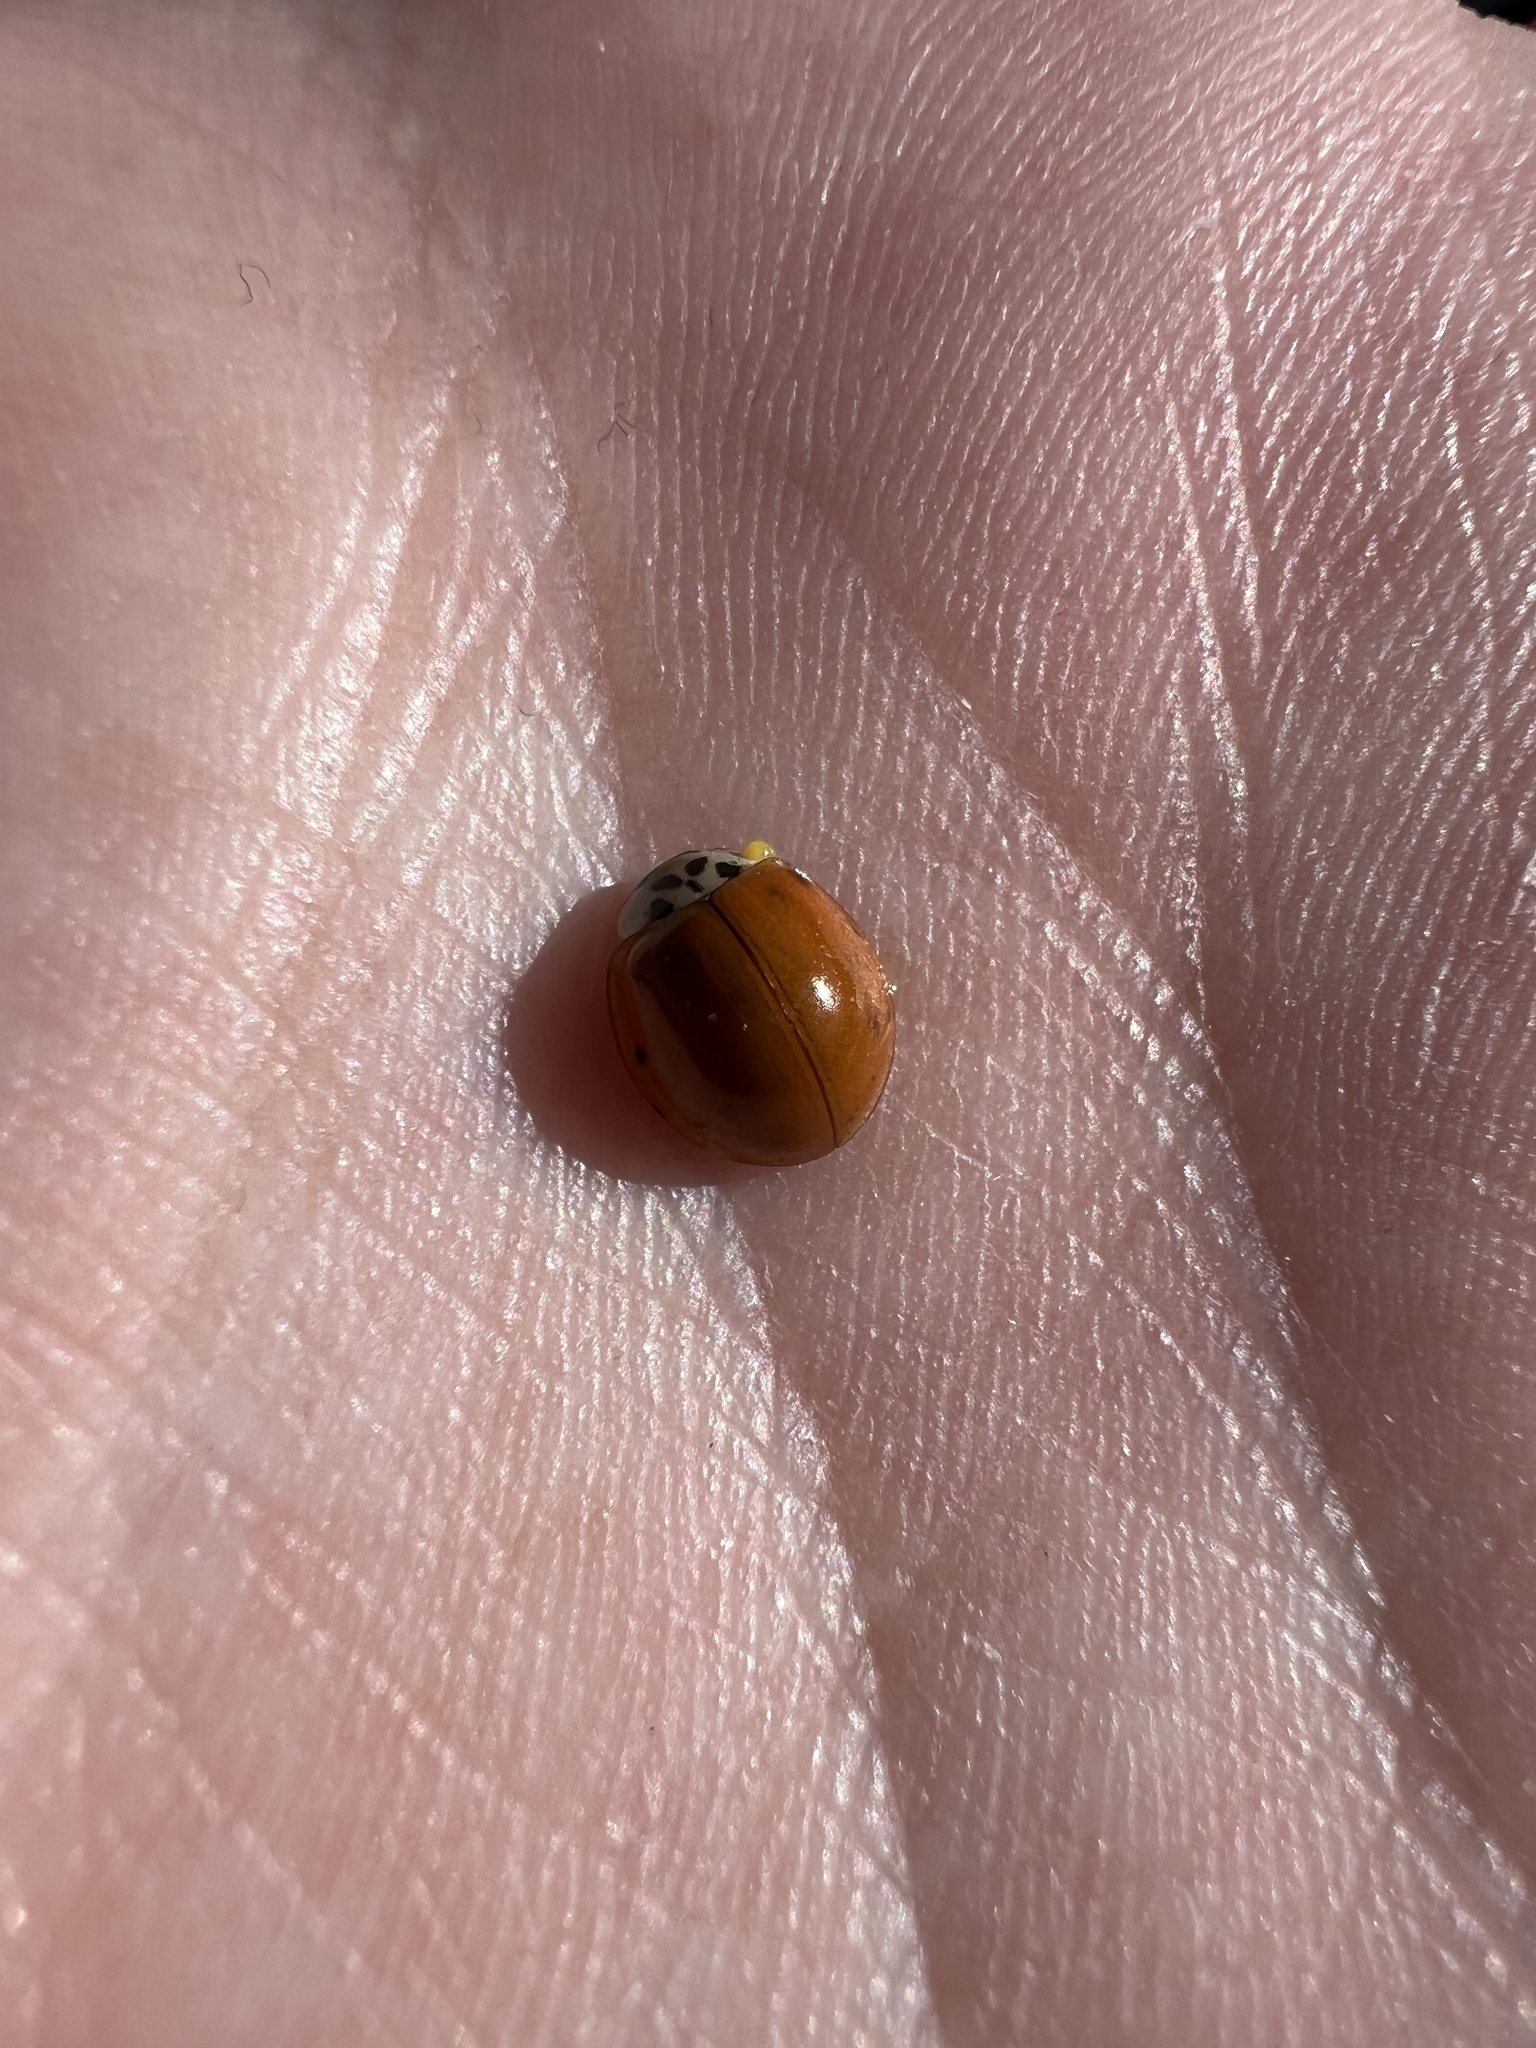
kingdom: Animalia
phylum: Arthropoda
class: Insecta
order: Coleoptera
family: Coccinellidae
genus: Harmonia
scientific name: Harmonia axyridis
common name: Harlequin ladybird
